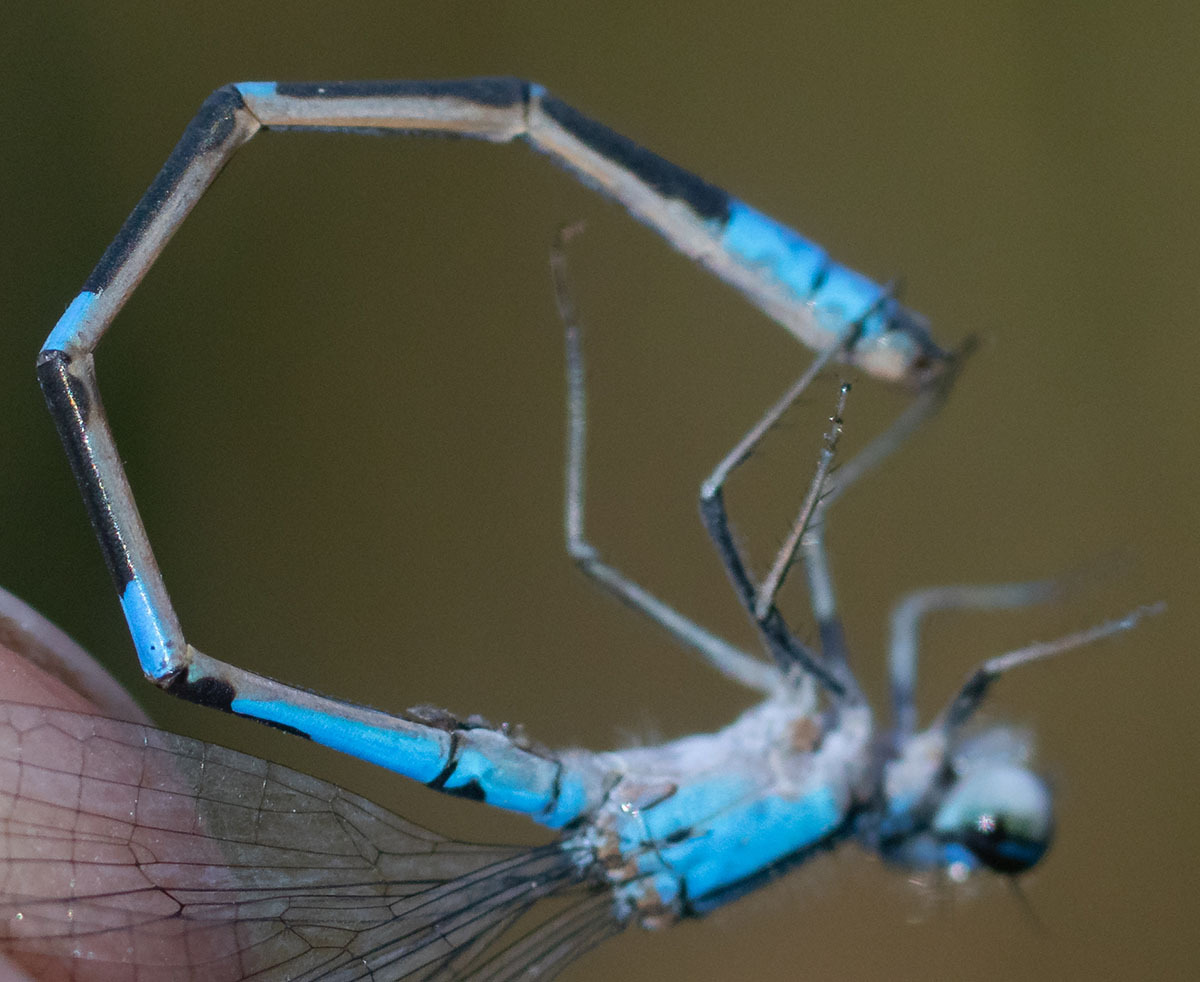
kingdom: Animalia
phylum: Arthropoda
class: Insecta
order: Odonata
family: Coenagrionidae
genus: Enallagma
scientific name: Enallagma praevarum
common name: Arroyo bluet
